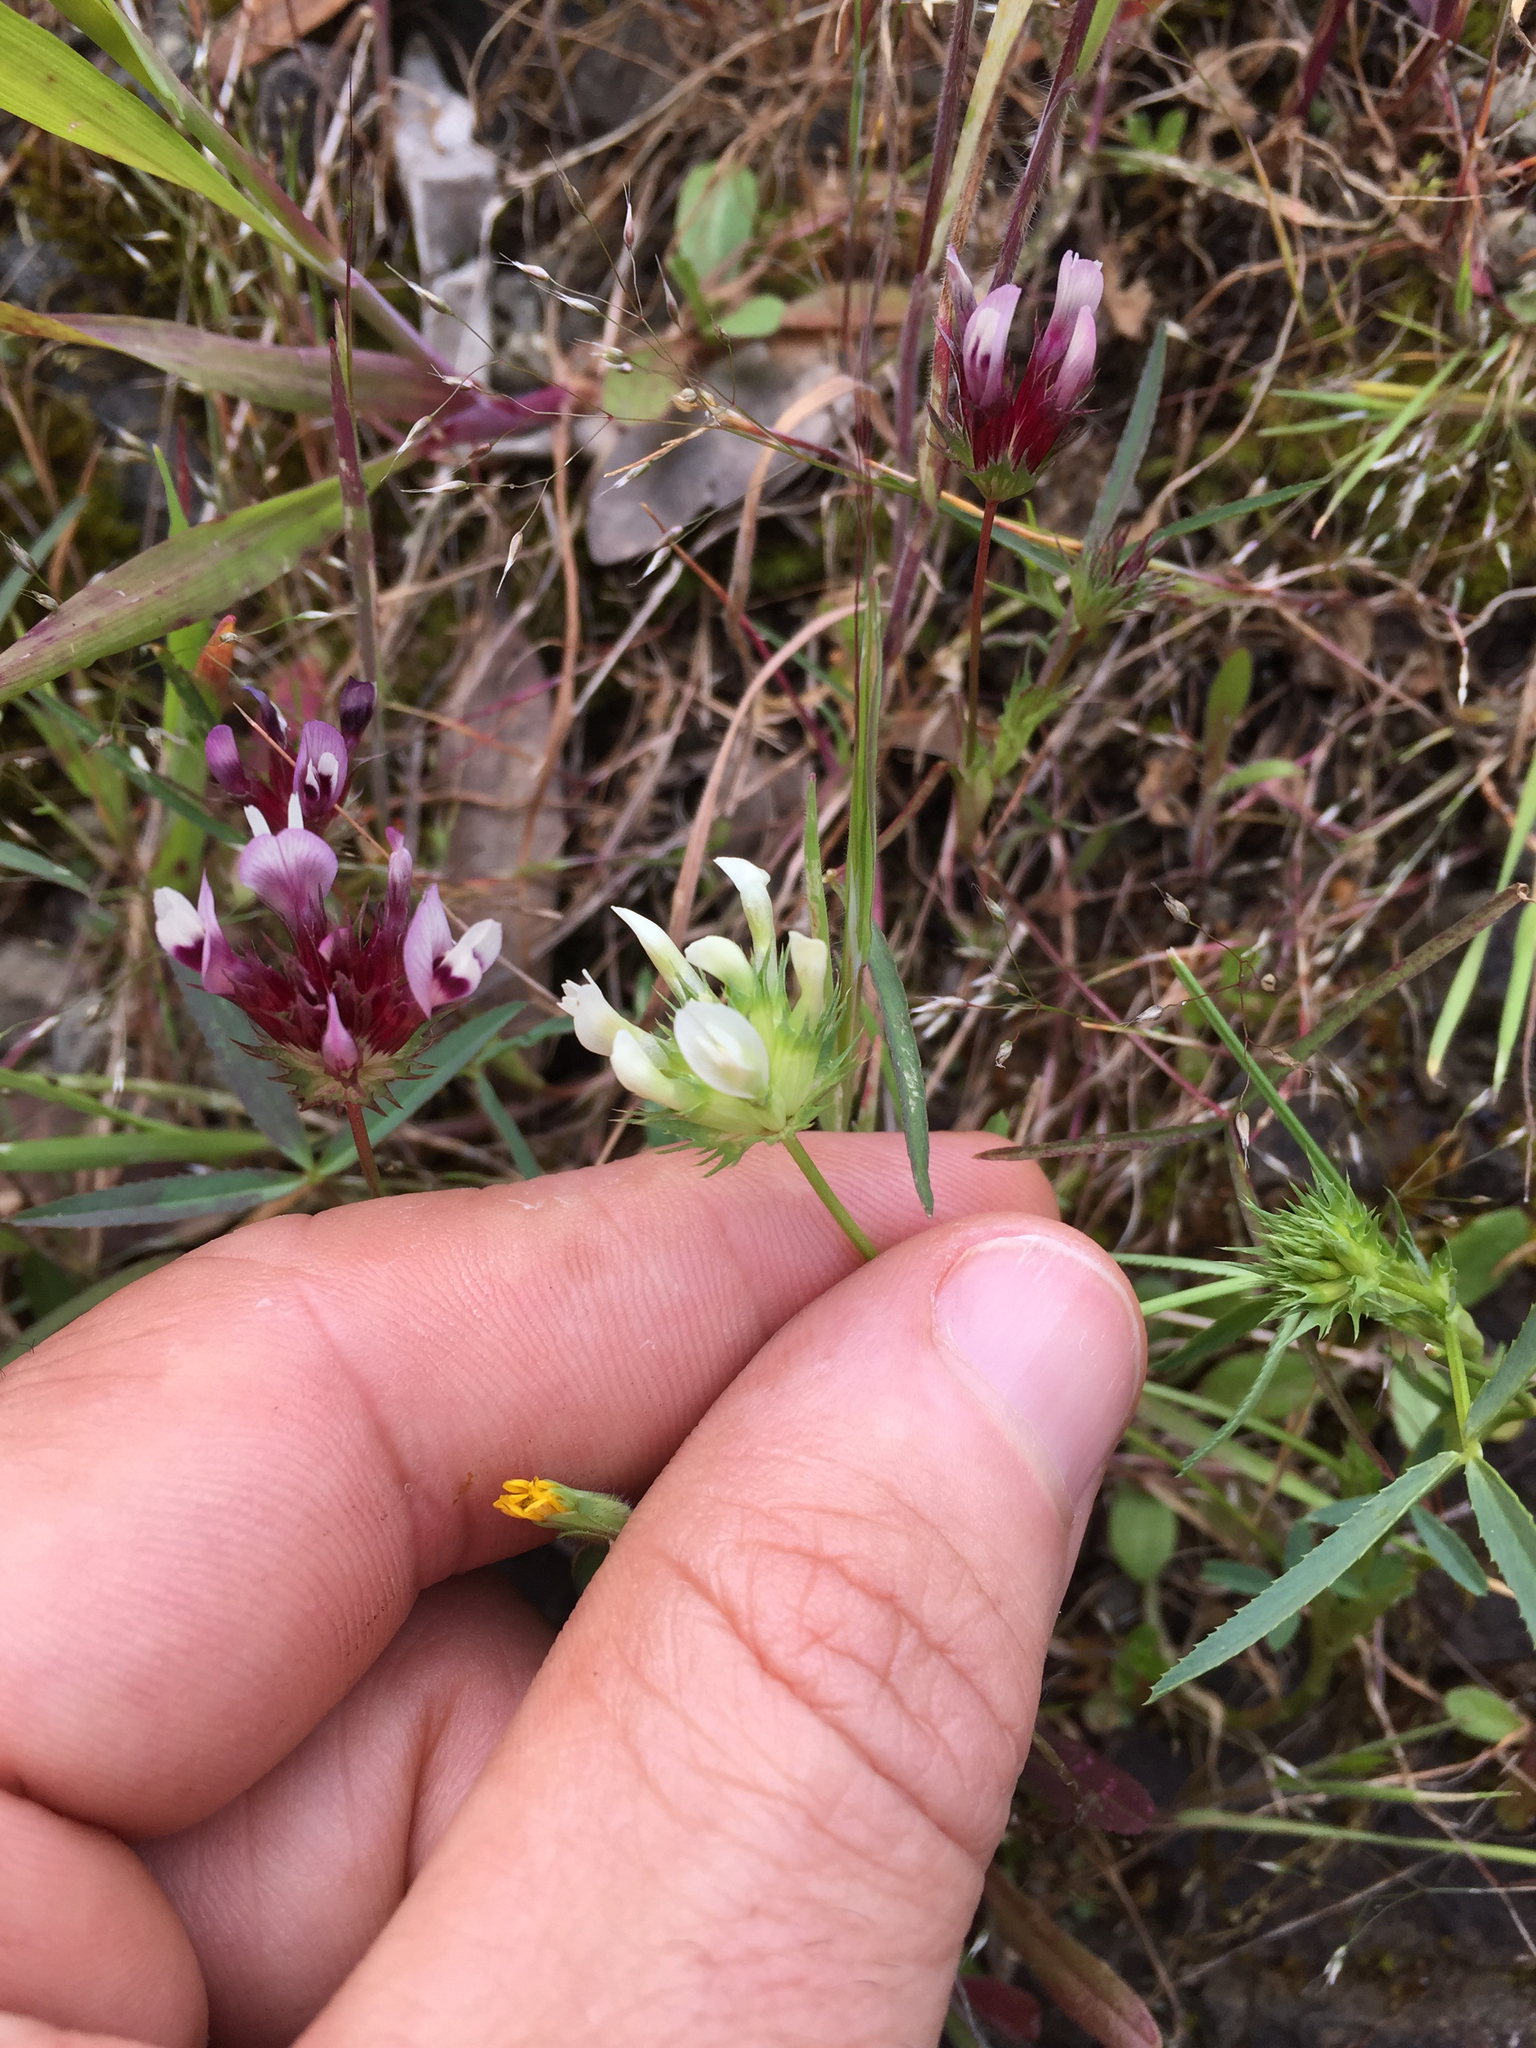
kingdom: Plantae
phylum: Tracheophyta
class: Magnoliopsida
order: Fabales
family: Fabaceae
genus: Trifolium
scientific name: Trifolium willdenovii
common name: Tomcat clover
